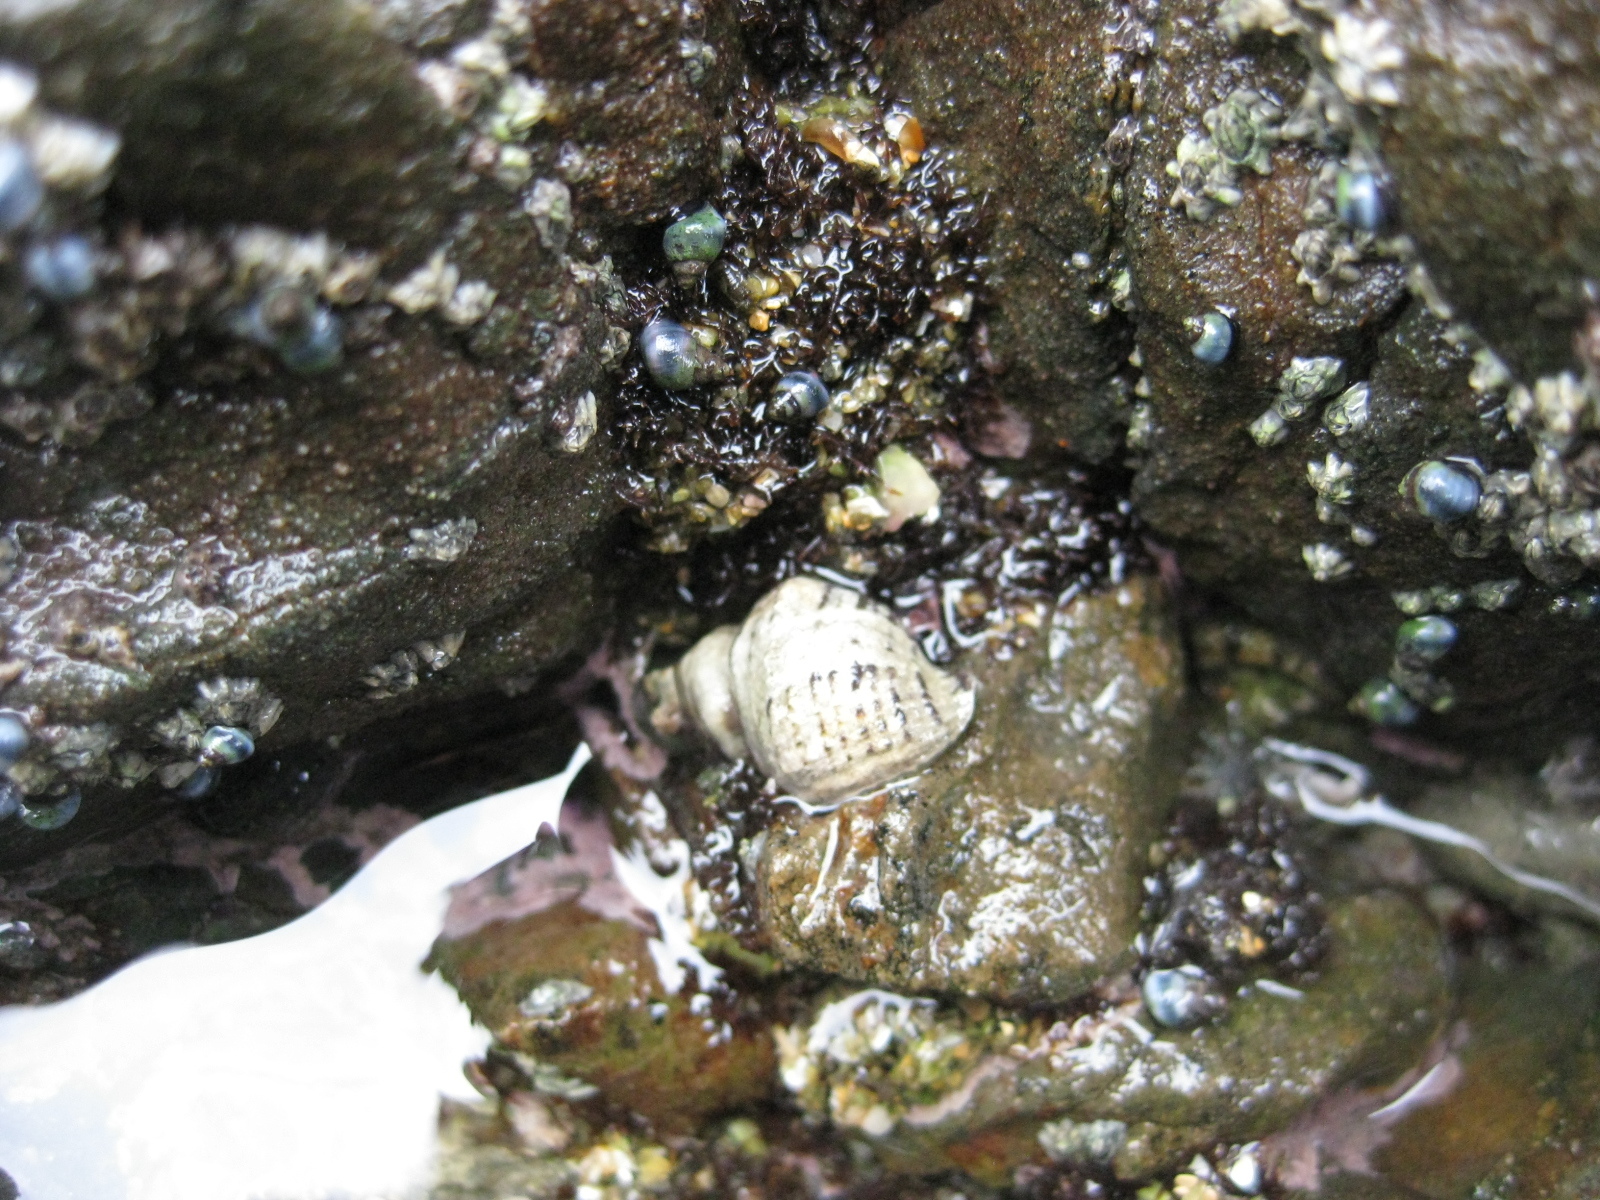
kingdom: Animalia
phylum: Mollusca
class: Gastropoda
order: Neogastropoda
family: Muricidae
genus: Haustrum
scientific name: Haustrum scobina
